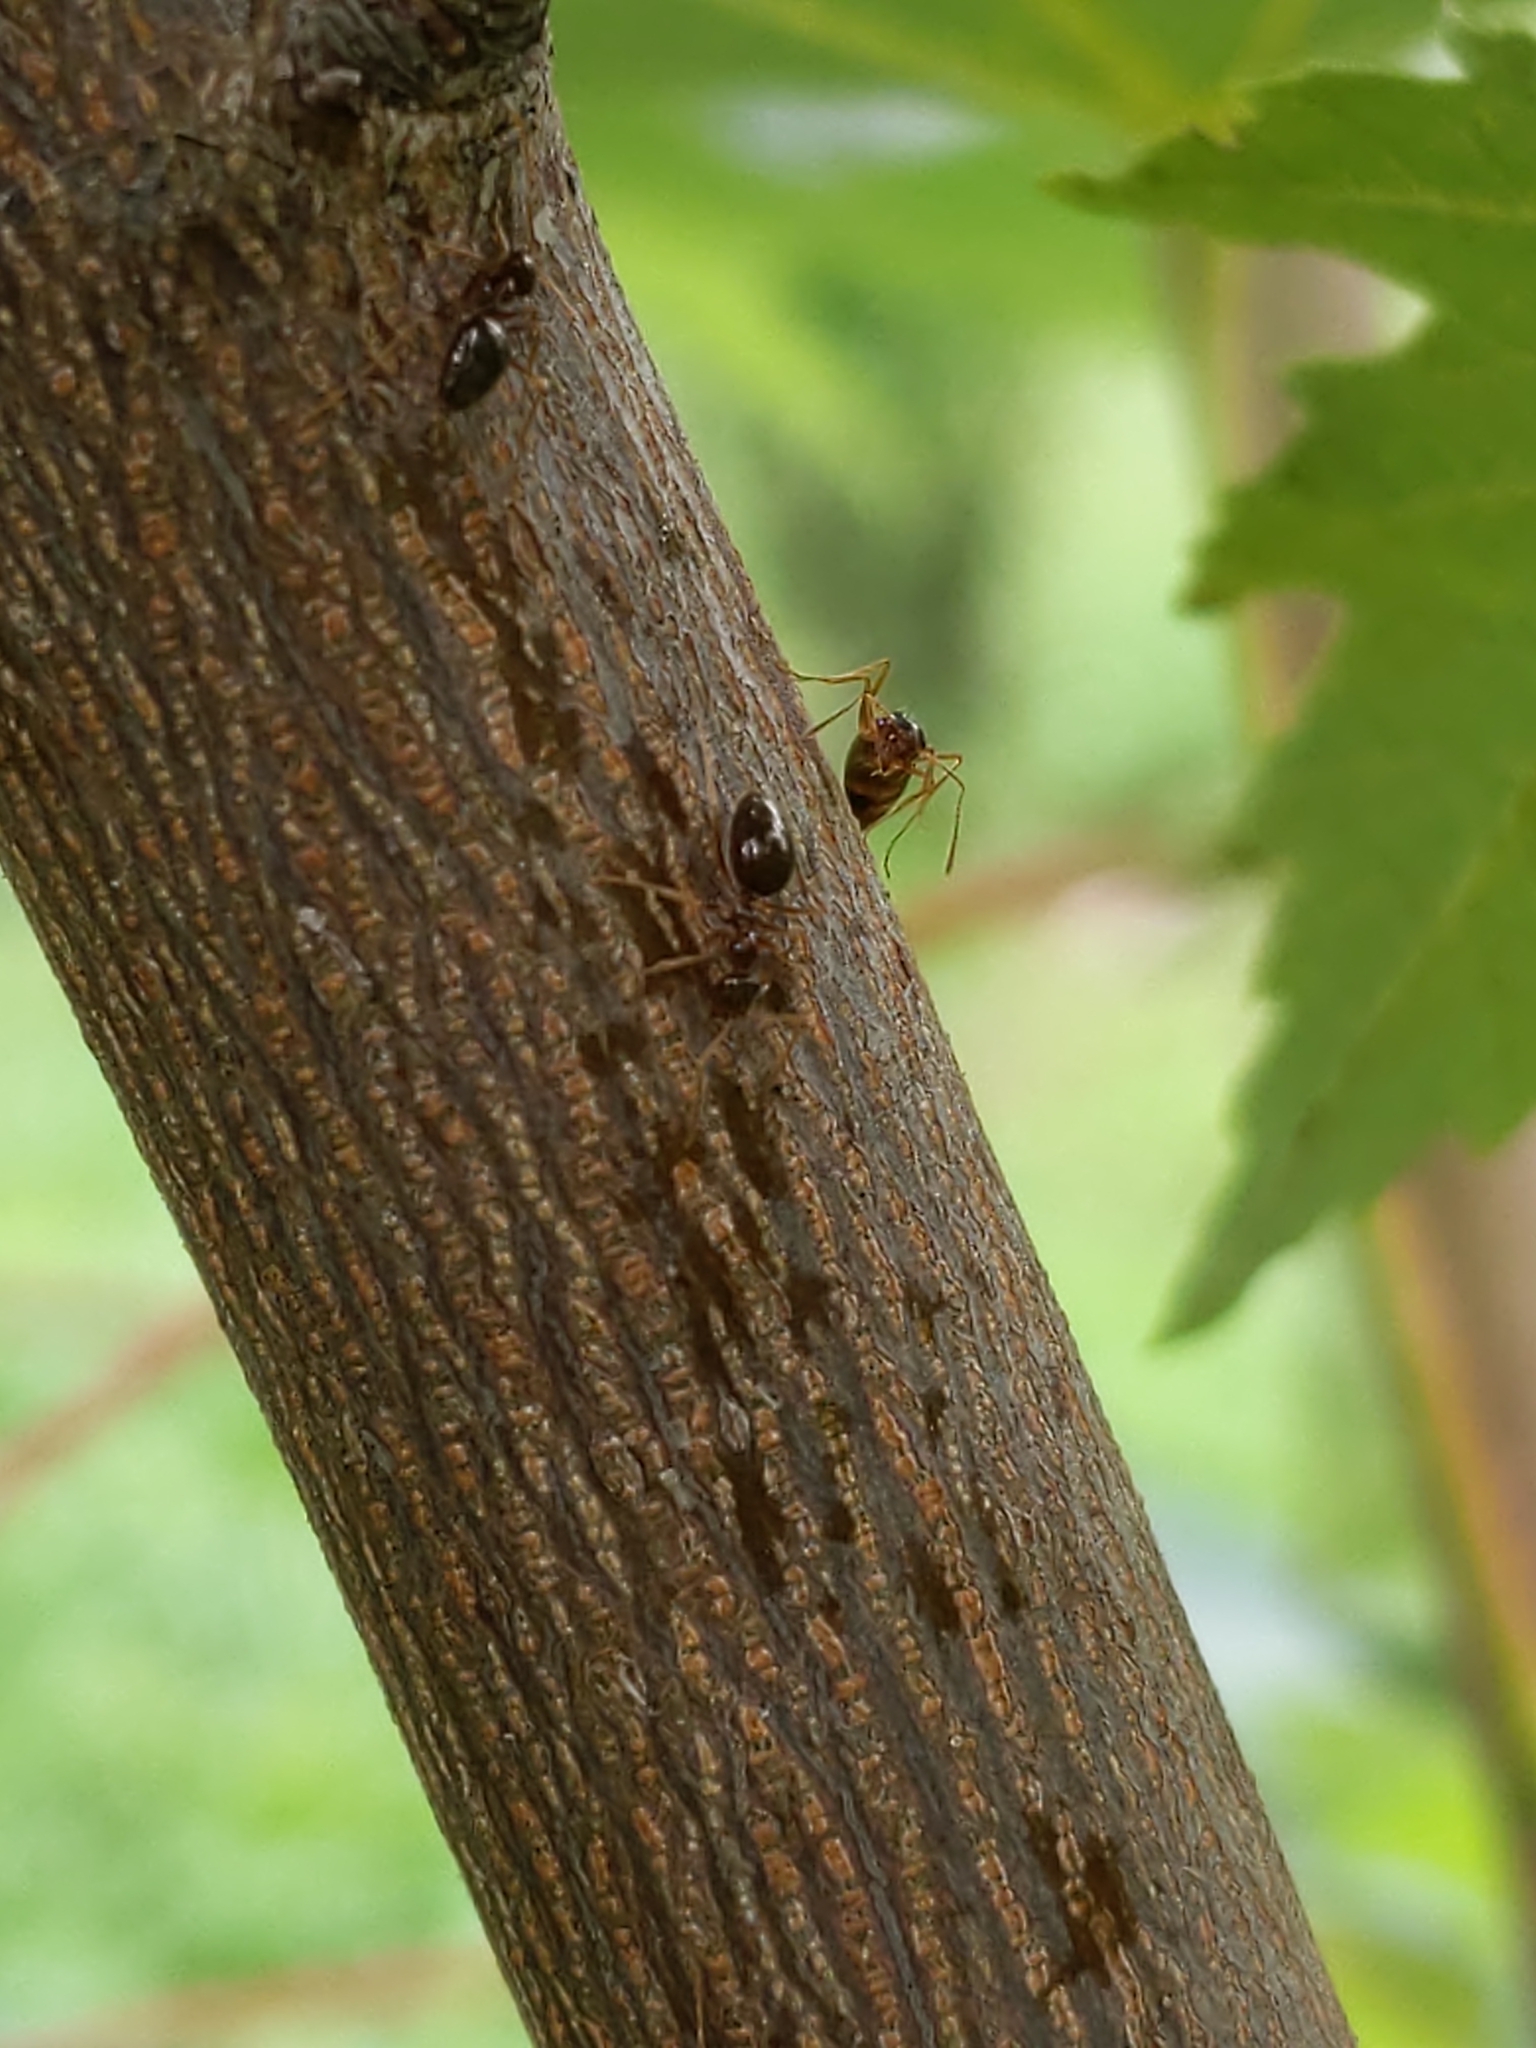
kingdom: Animalia
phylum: Arthropoda
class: Insecta
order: Hymenoptera
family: Formicidae
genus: Prenolepis
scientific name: Prenolepis imparis
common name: Small honey ant
